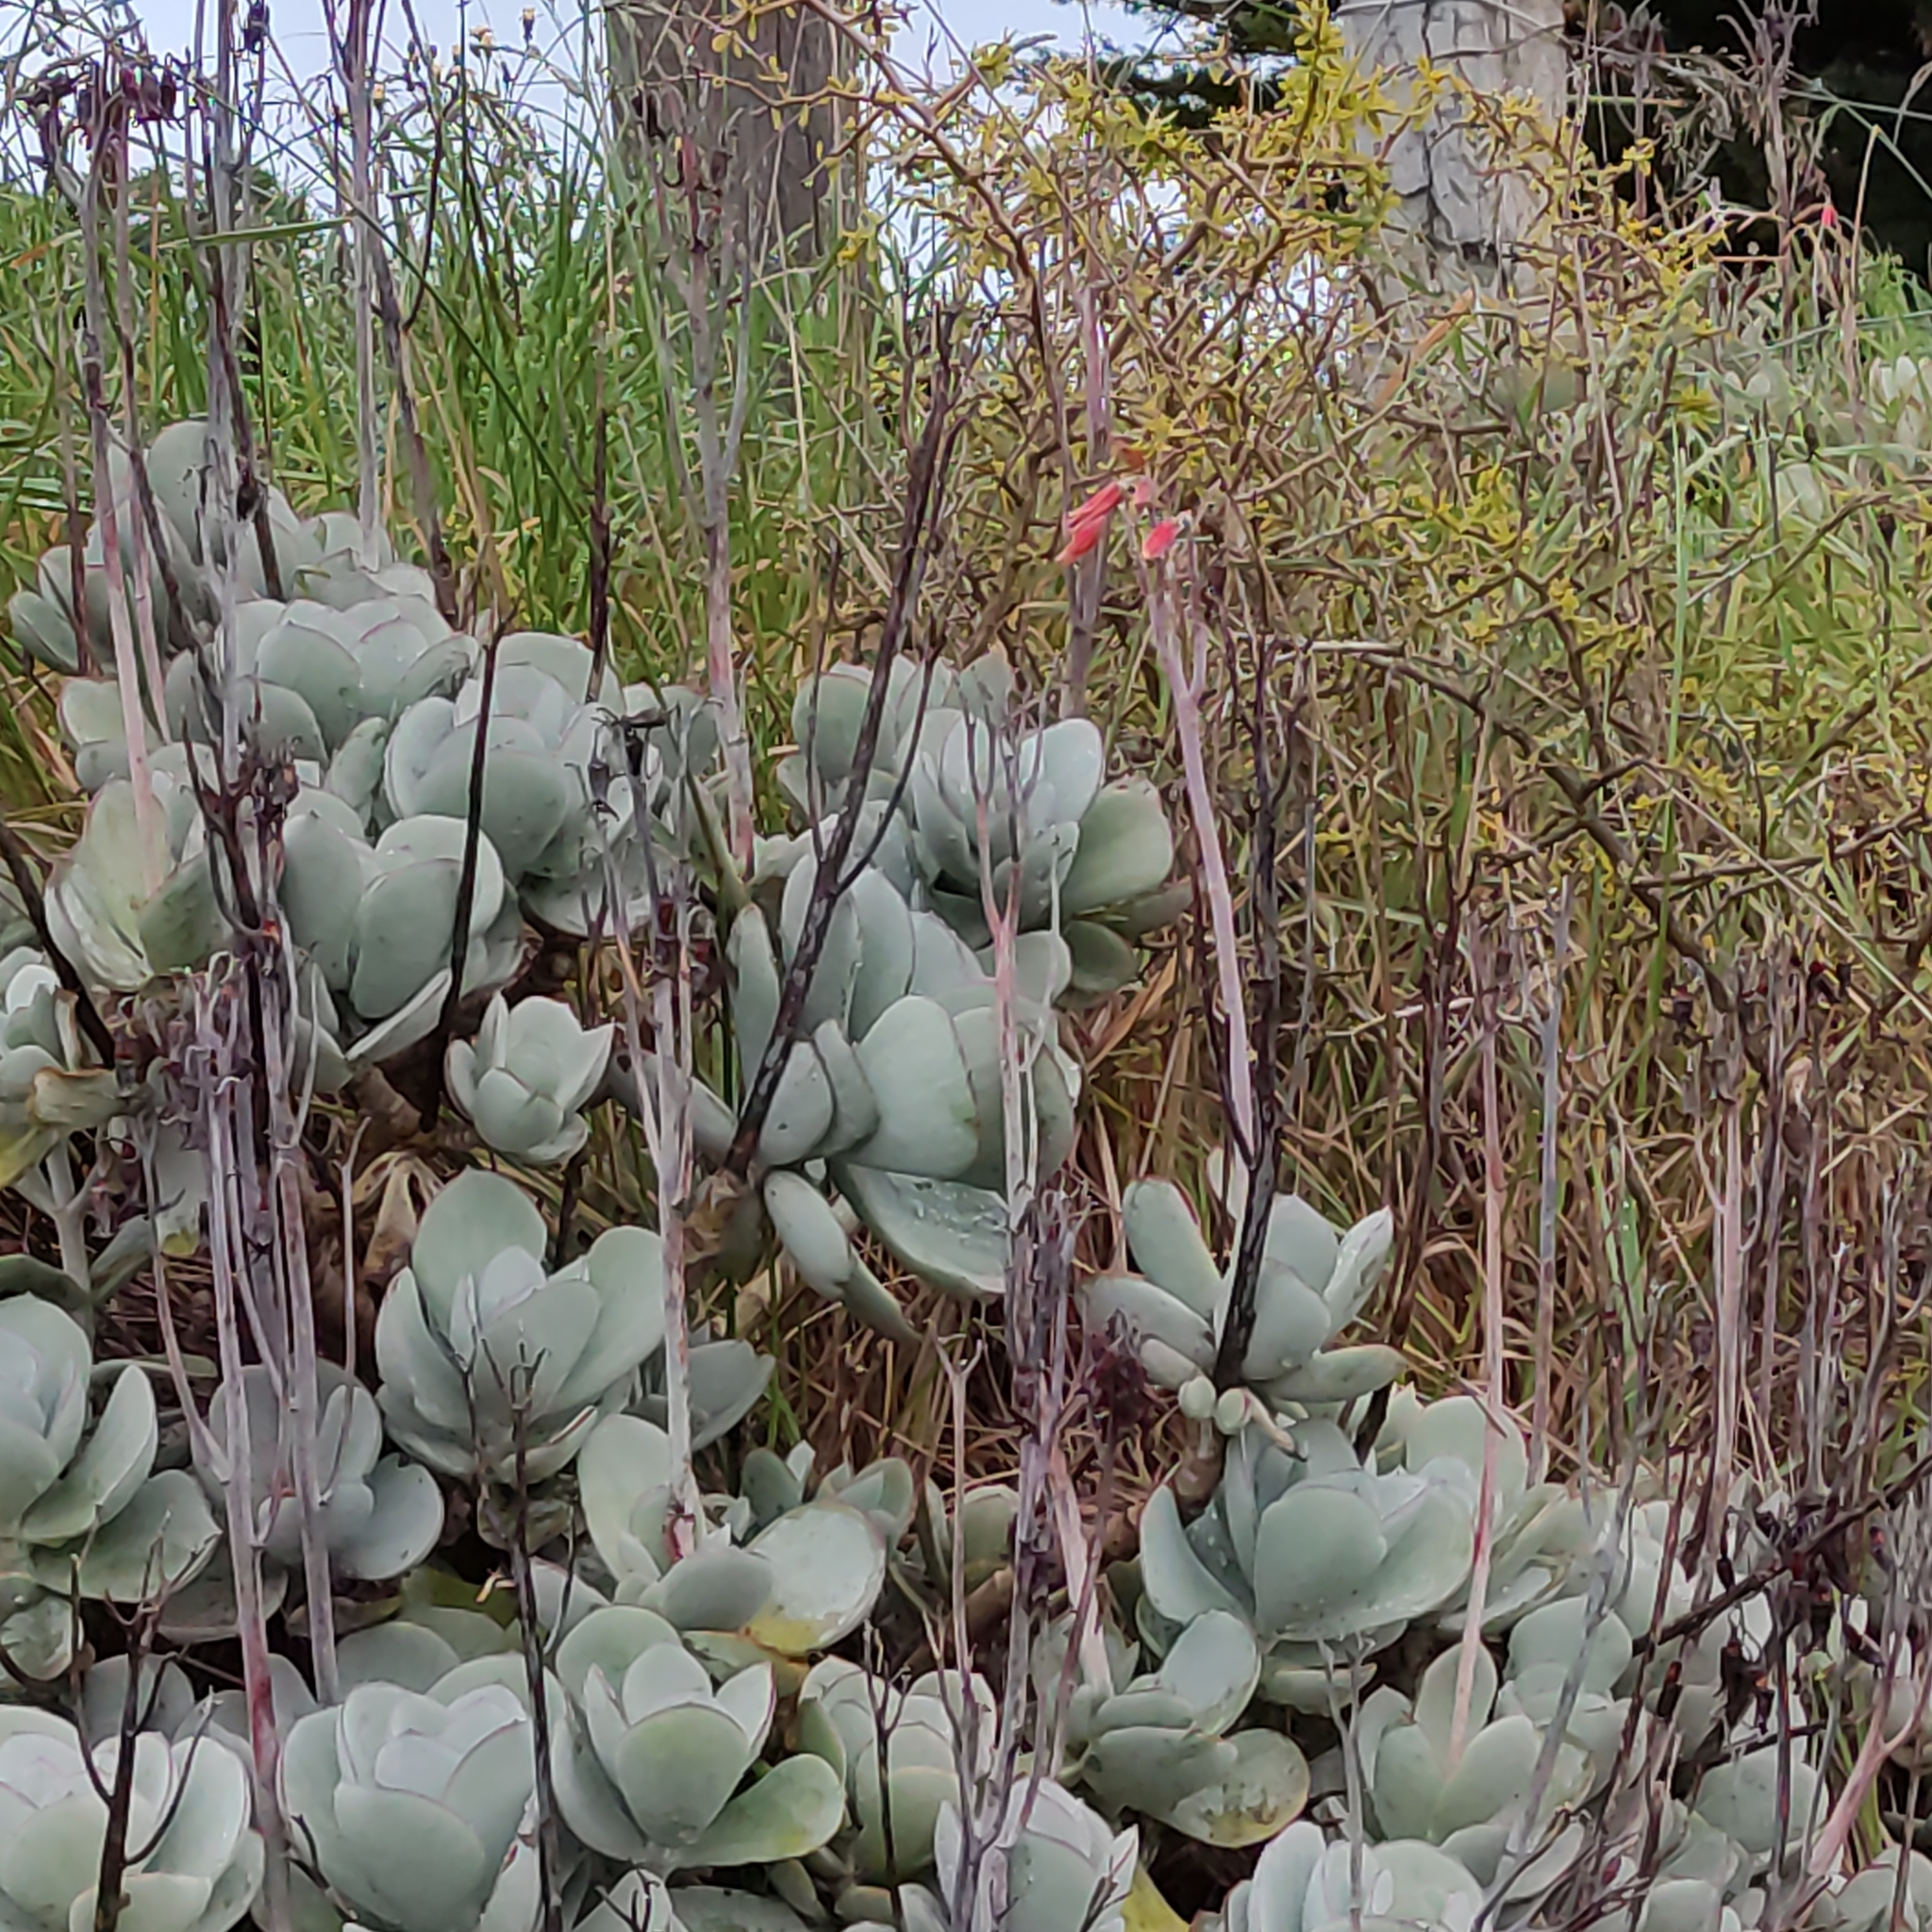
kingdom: Plantae
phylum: Tracheophyta
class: Magnoliopsida
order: Saxifragales
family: Crassulaceae
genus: Cotyledon
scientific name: Cotyledon orbiculata
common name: Pig's ear
